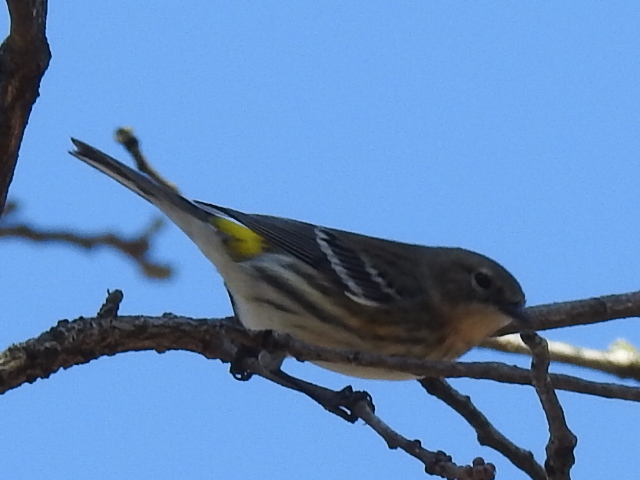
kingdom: Animalia
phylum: Chordata
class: Aves
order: Passeriformes
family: Parulidae
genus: Setophaga
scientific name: Setophaga coronata
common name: Myrtle warbler
